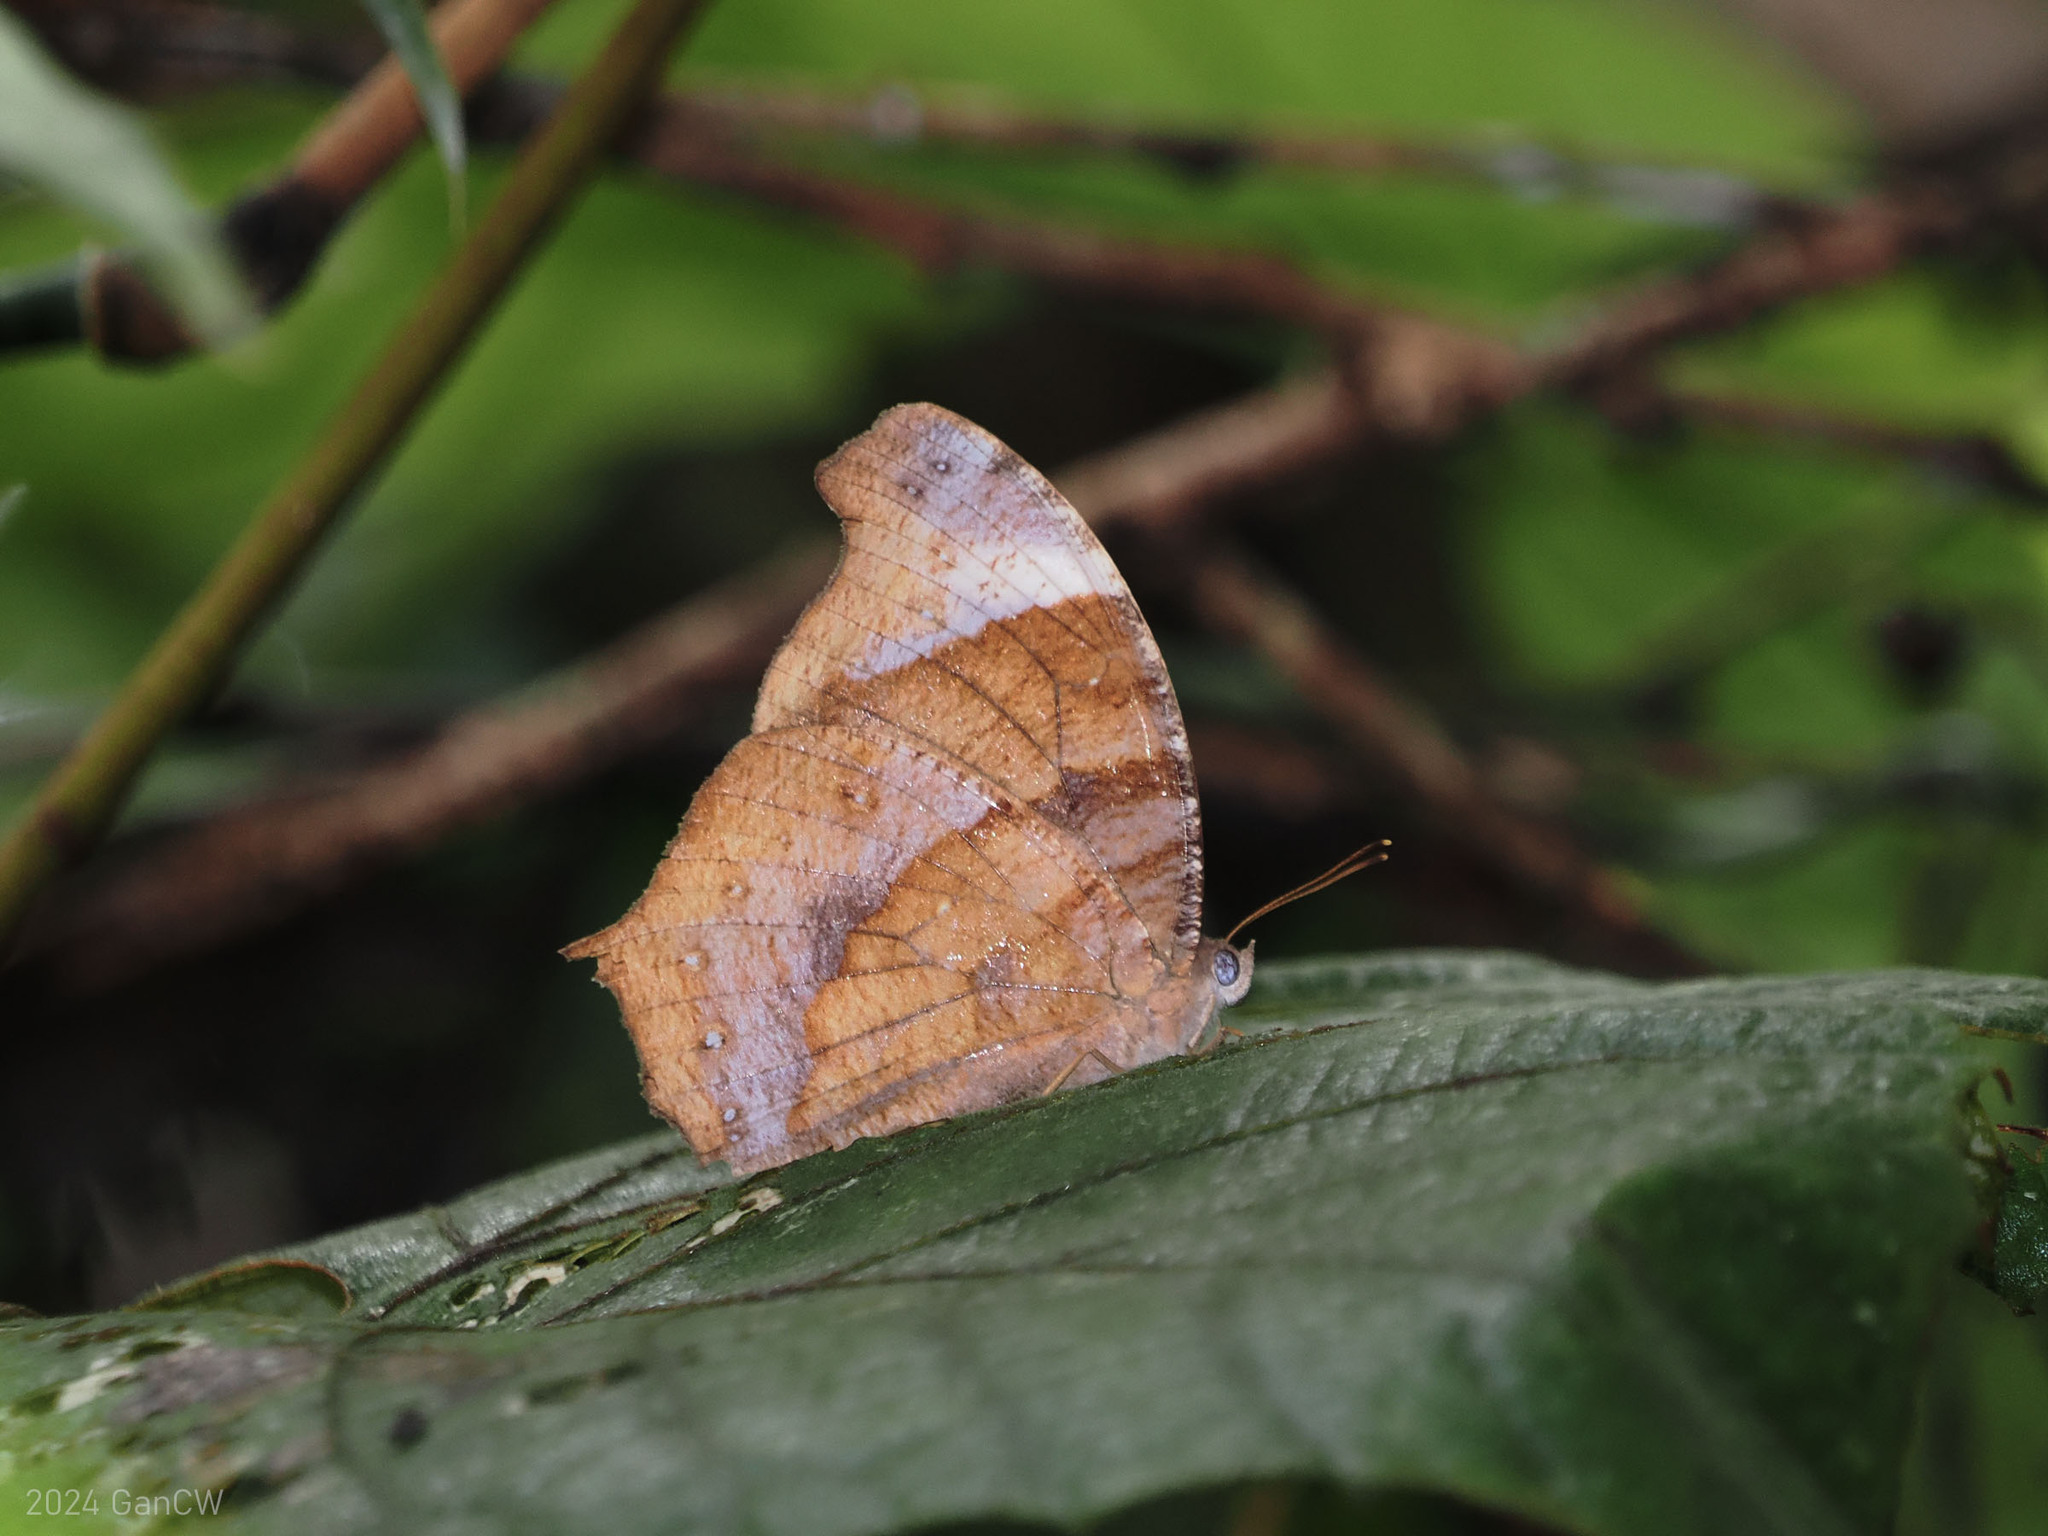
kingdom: Animalia
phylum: Arthropoda
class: Insecta
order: Lepidoptera
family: Nymphalidae
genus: Melanitis
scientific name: Melanitis atrax
